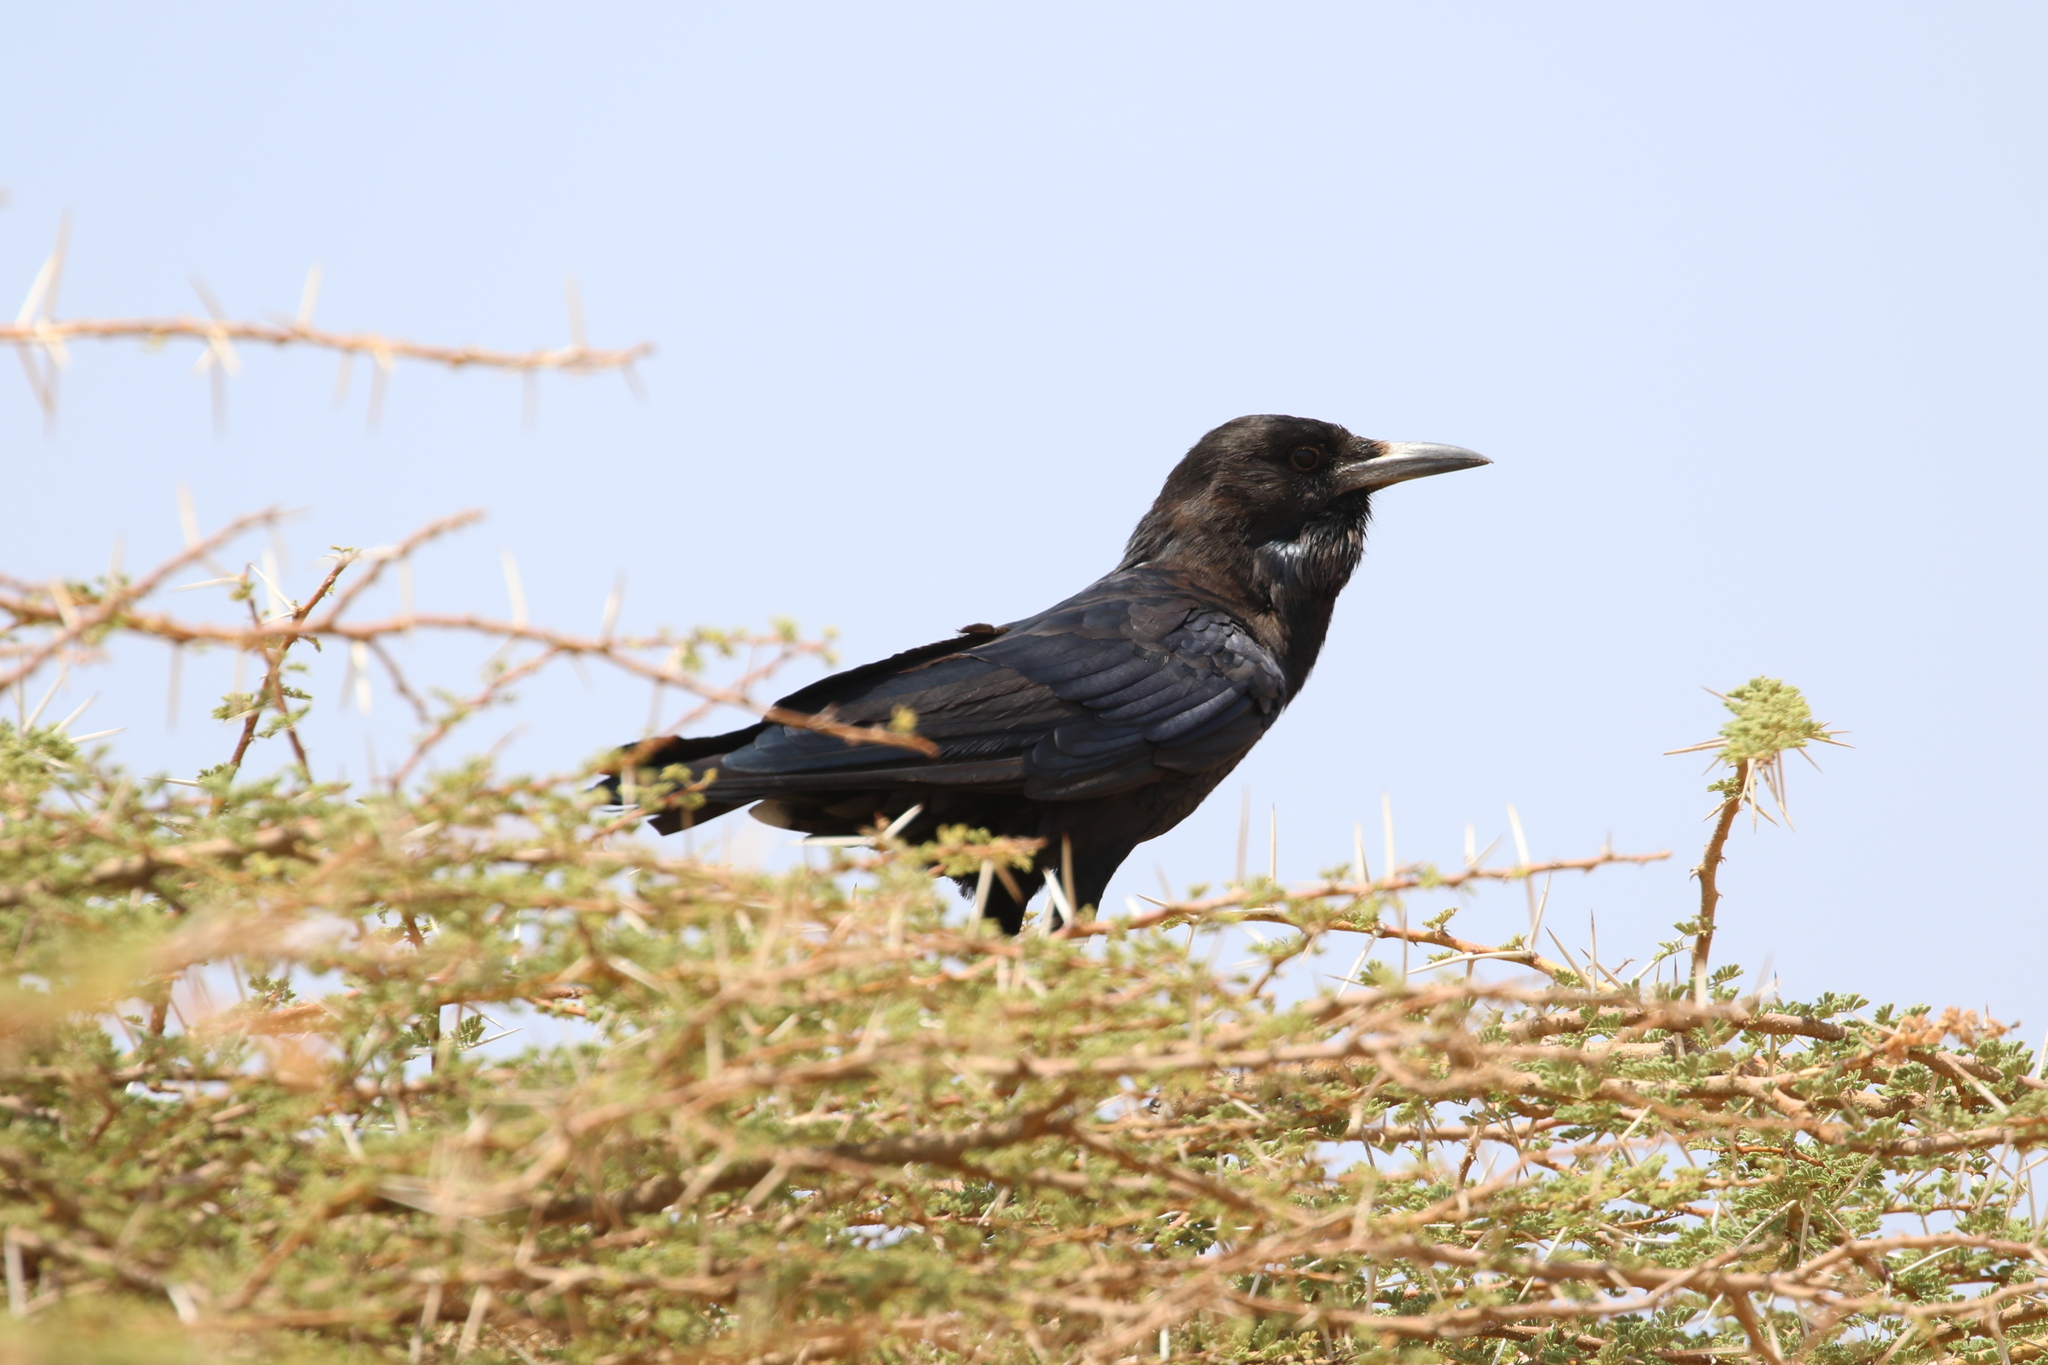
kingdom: Animalia
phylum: Chordata
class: Aves
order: Passeriformes
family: Corvidae
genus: Corvus
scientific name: Corvus edithae
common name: Somali crow
